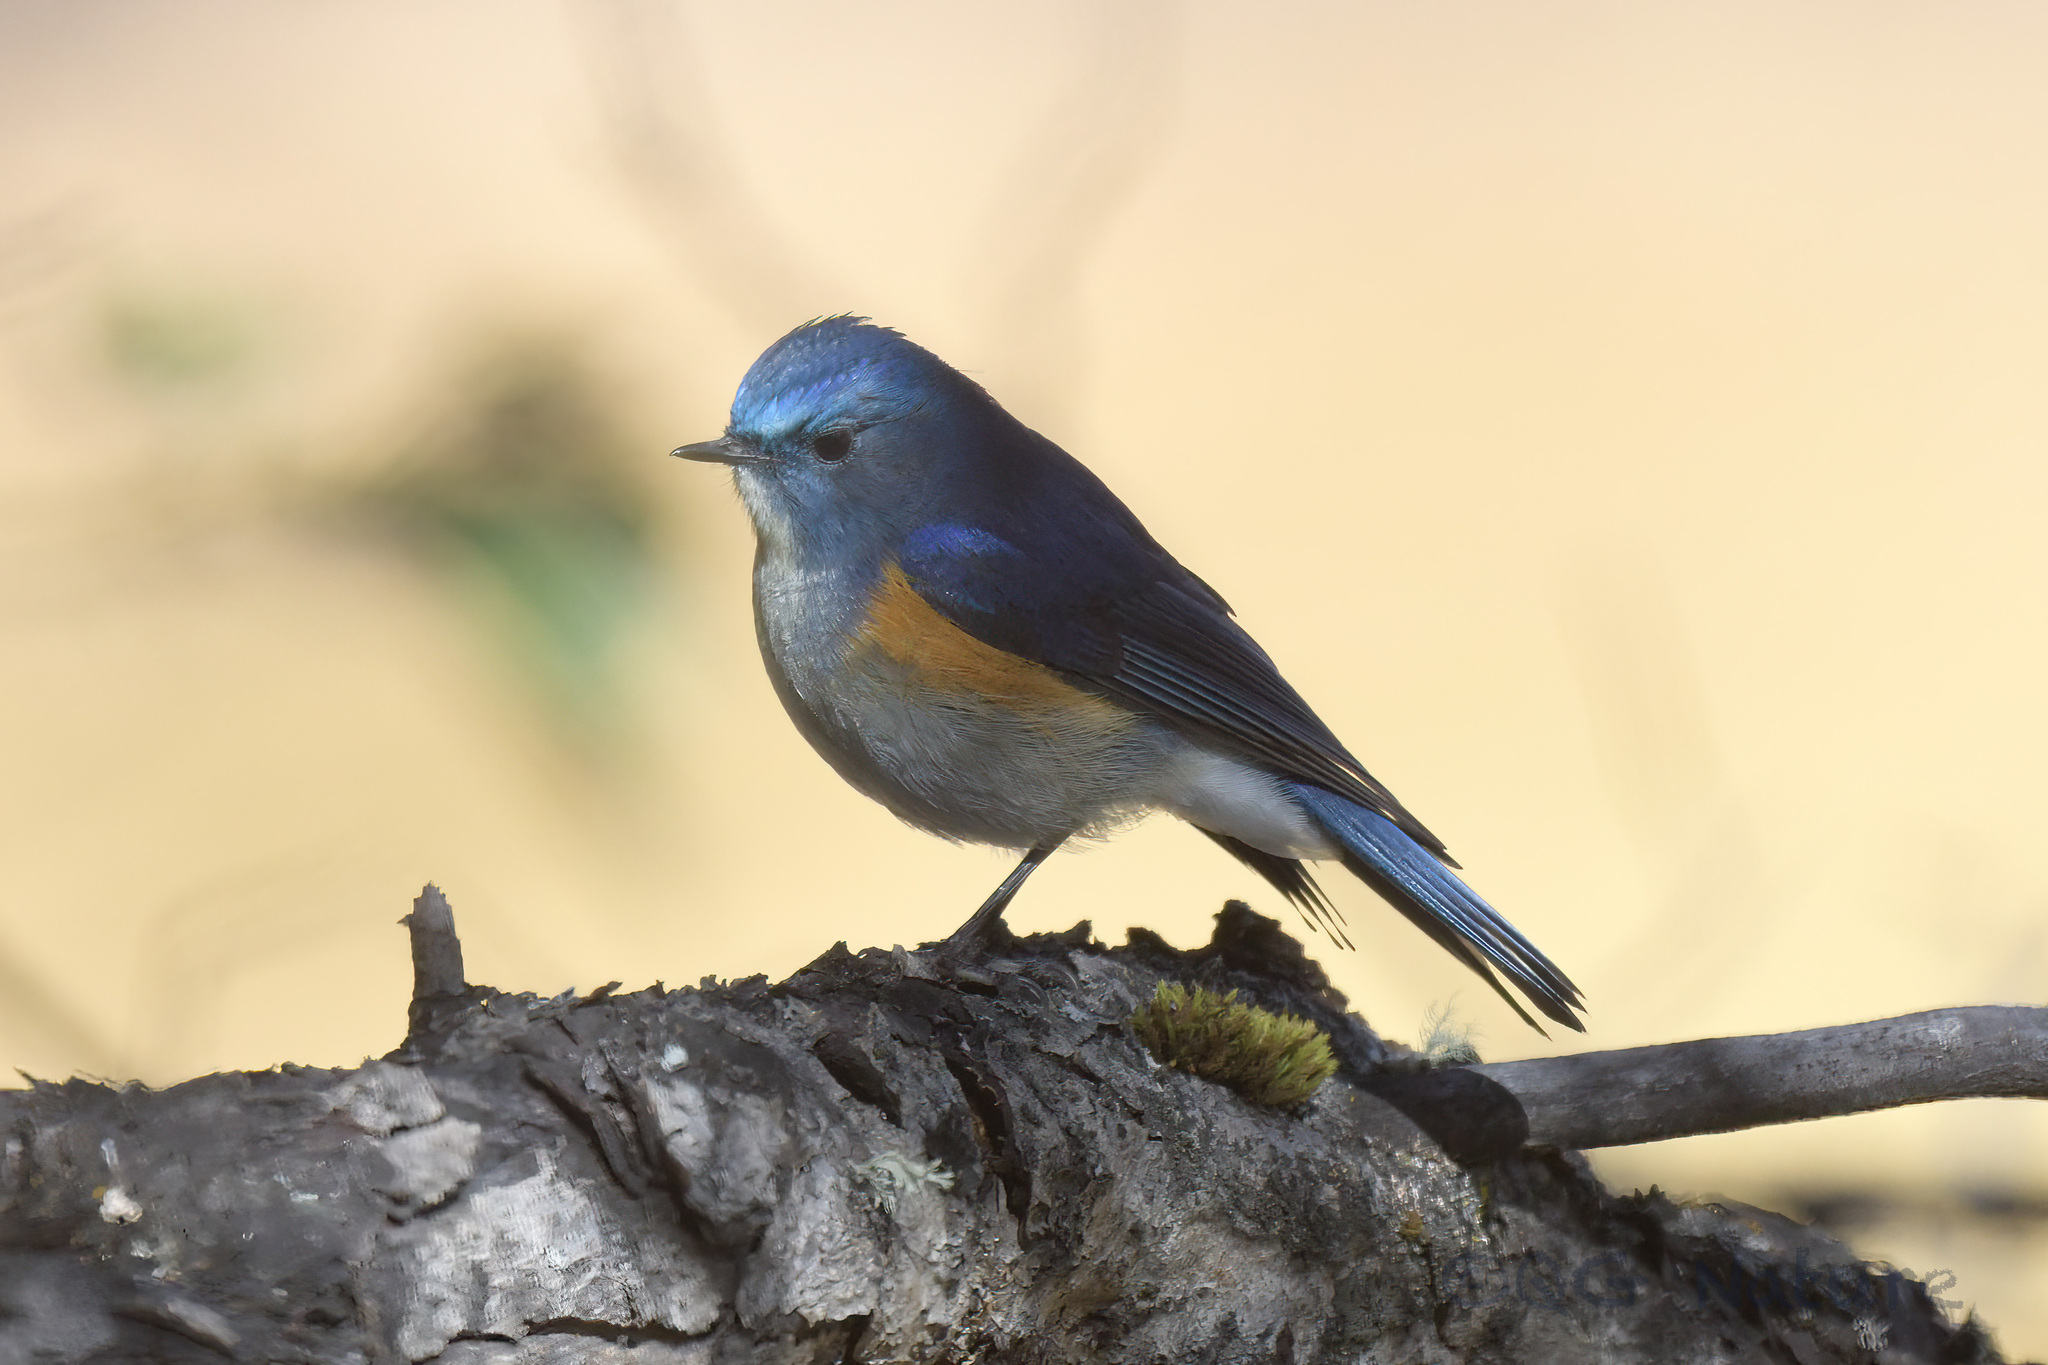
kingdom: Animalia
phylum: Chordata
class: Aves
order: Passeriformes
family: Muscicapidae
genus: Tarsiger
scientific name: Tarsiger rufilatus
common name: Himalayan bluetail
